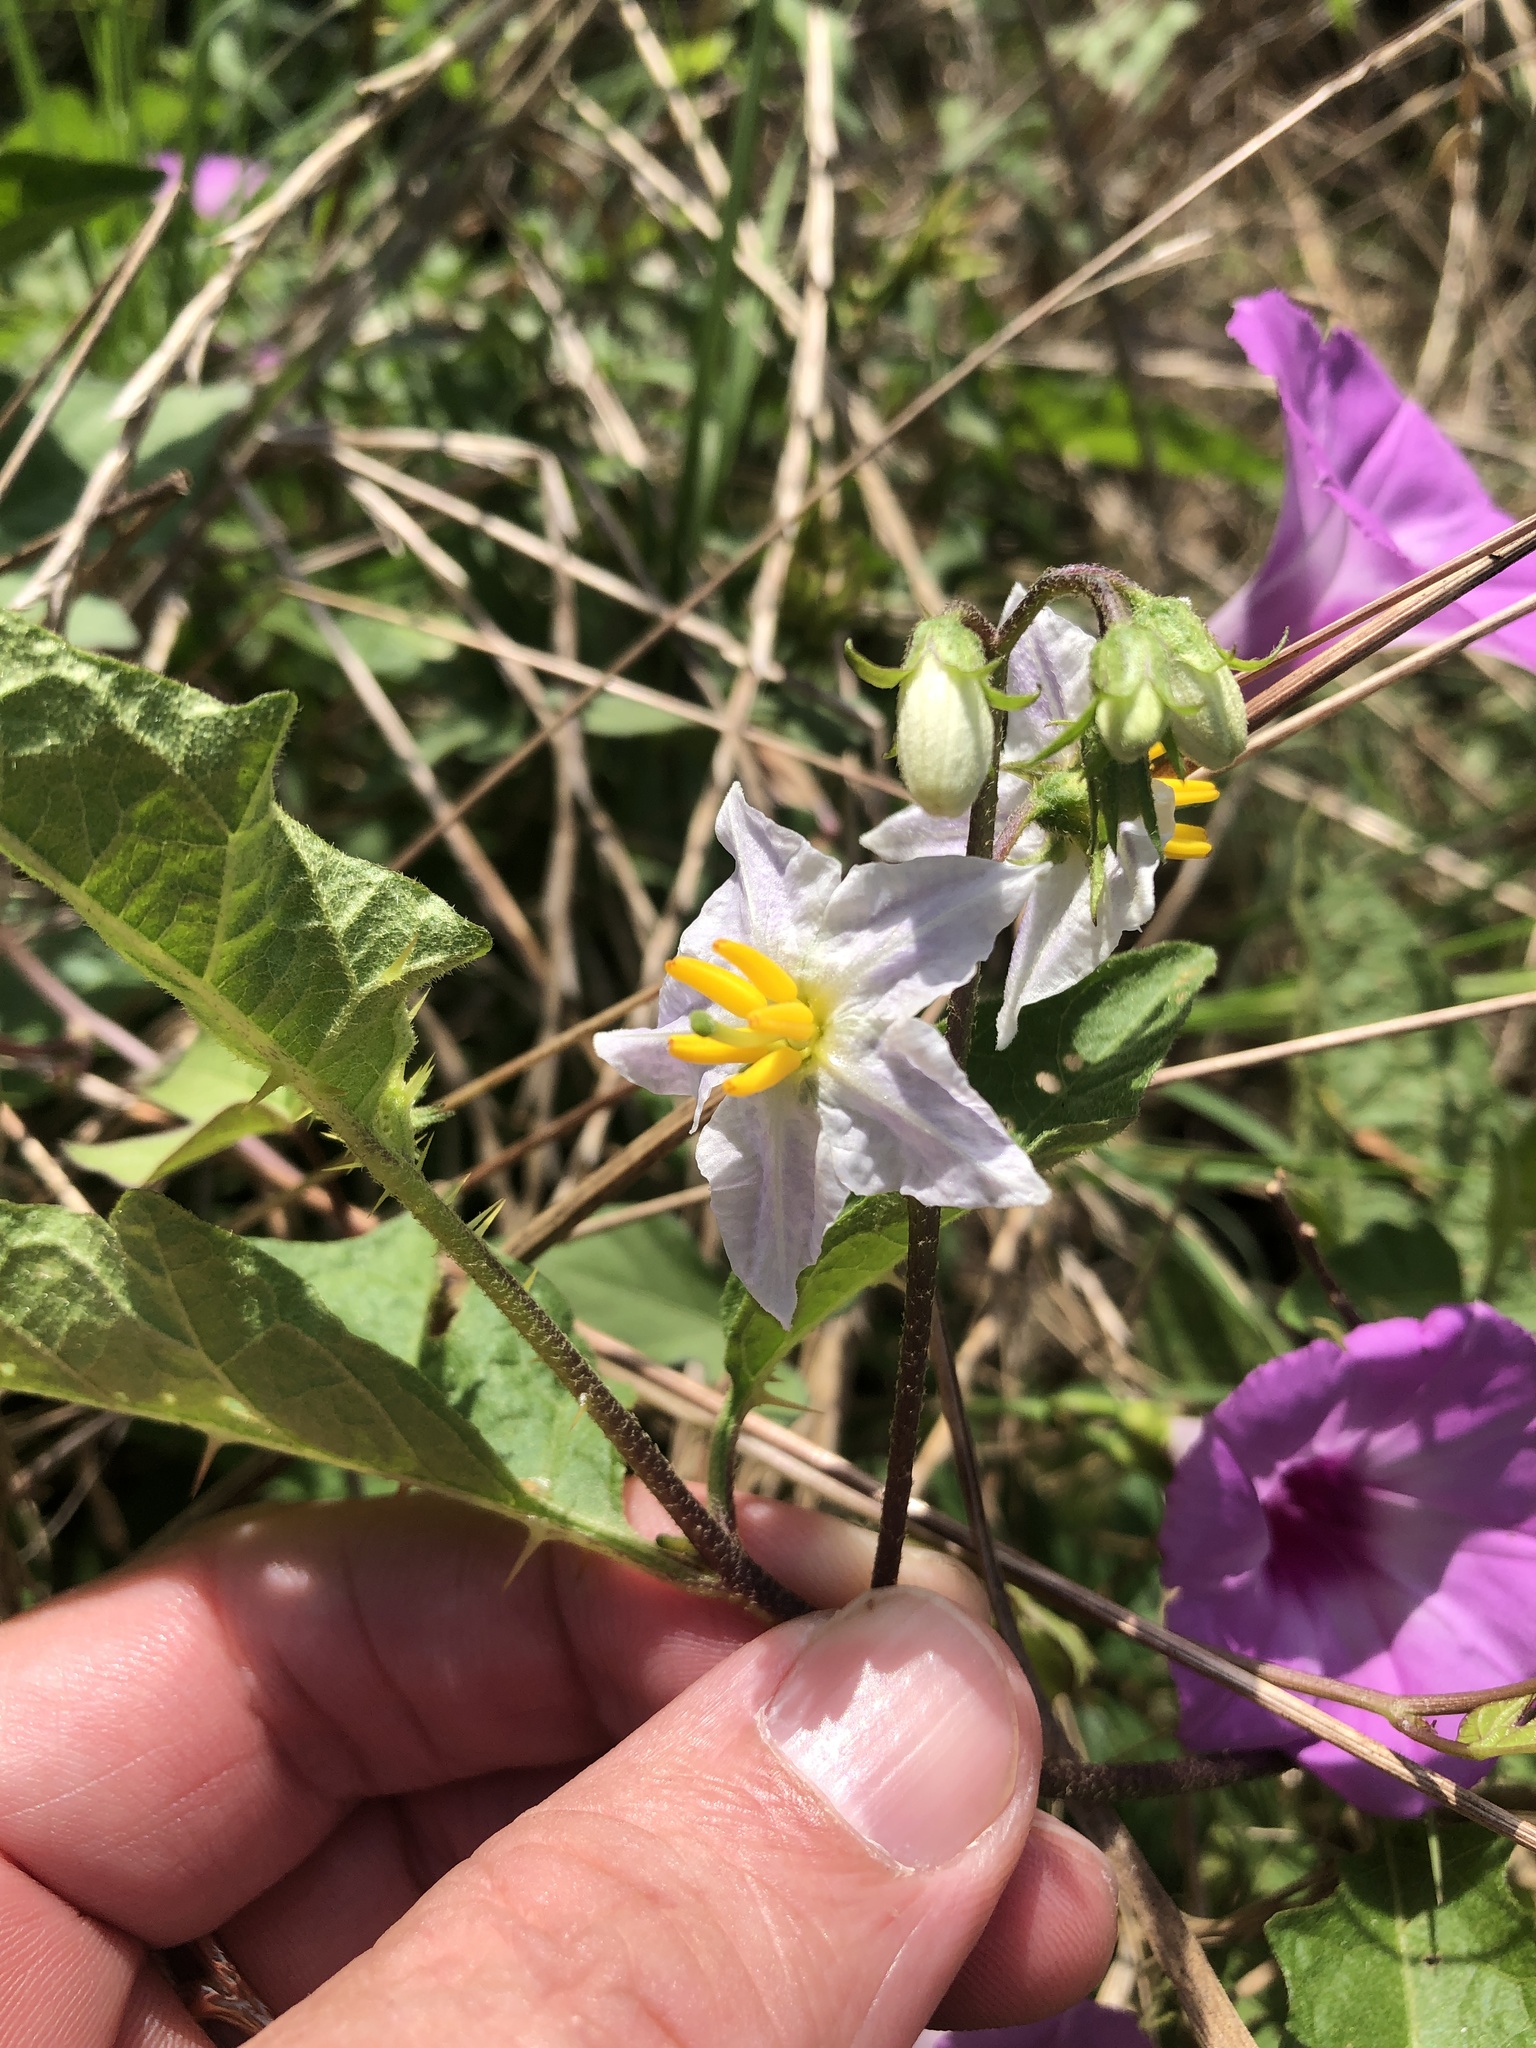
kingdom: Plantae
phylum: Tracheophyta
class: Magnoliopsida
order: Solanales
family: Solanaceae
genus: Solanum
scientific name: Solanum carolinense
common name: Horse-nettle
